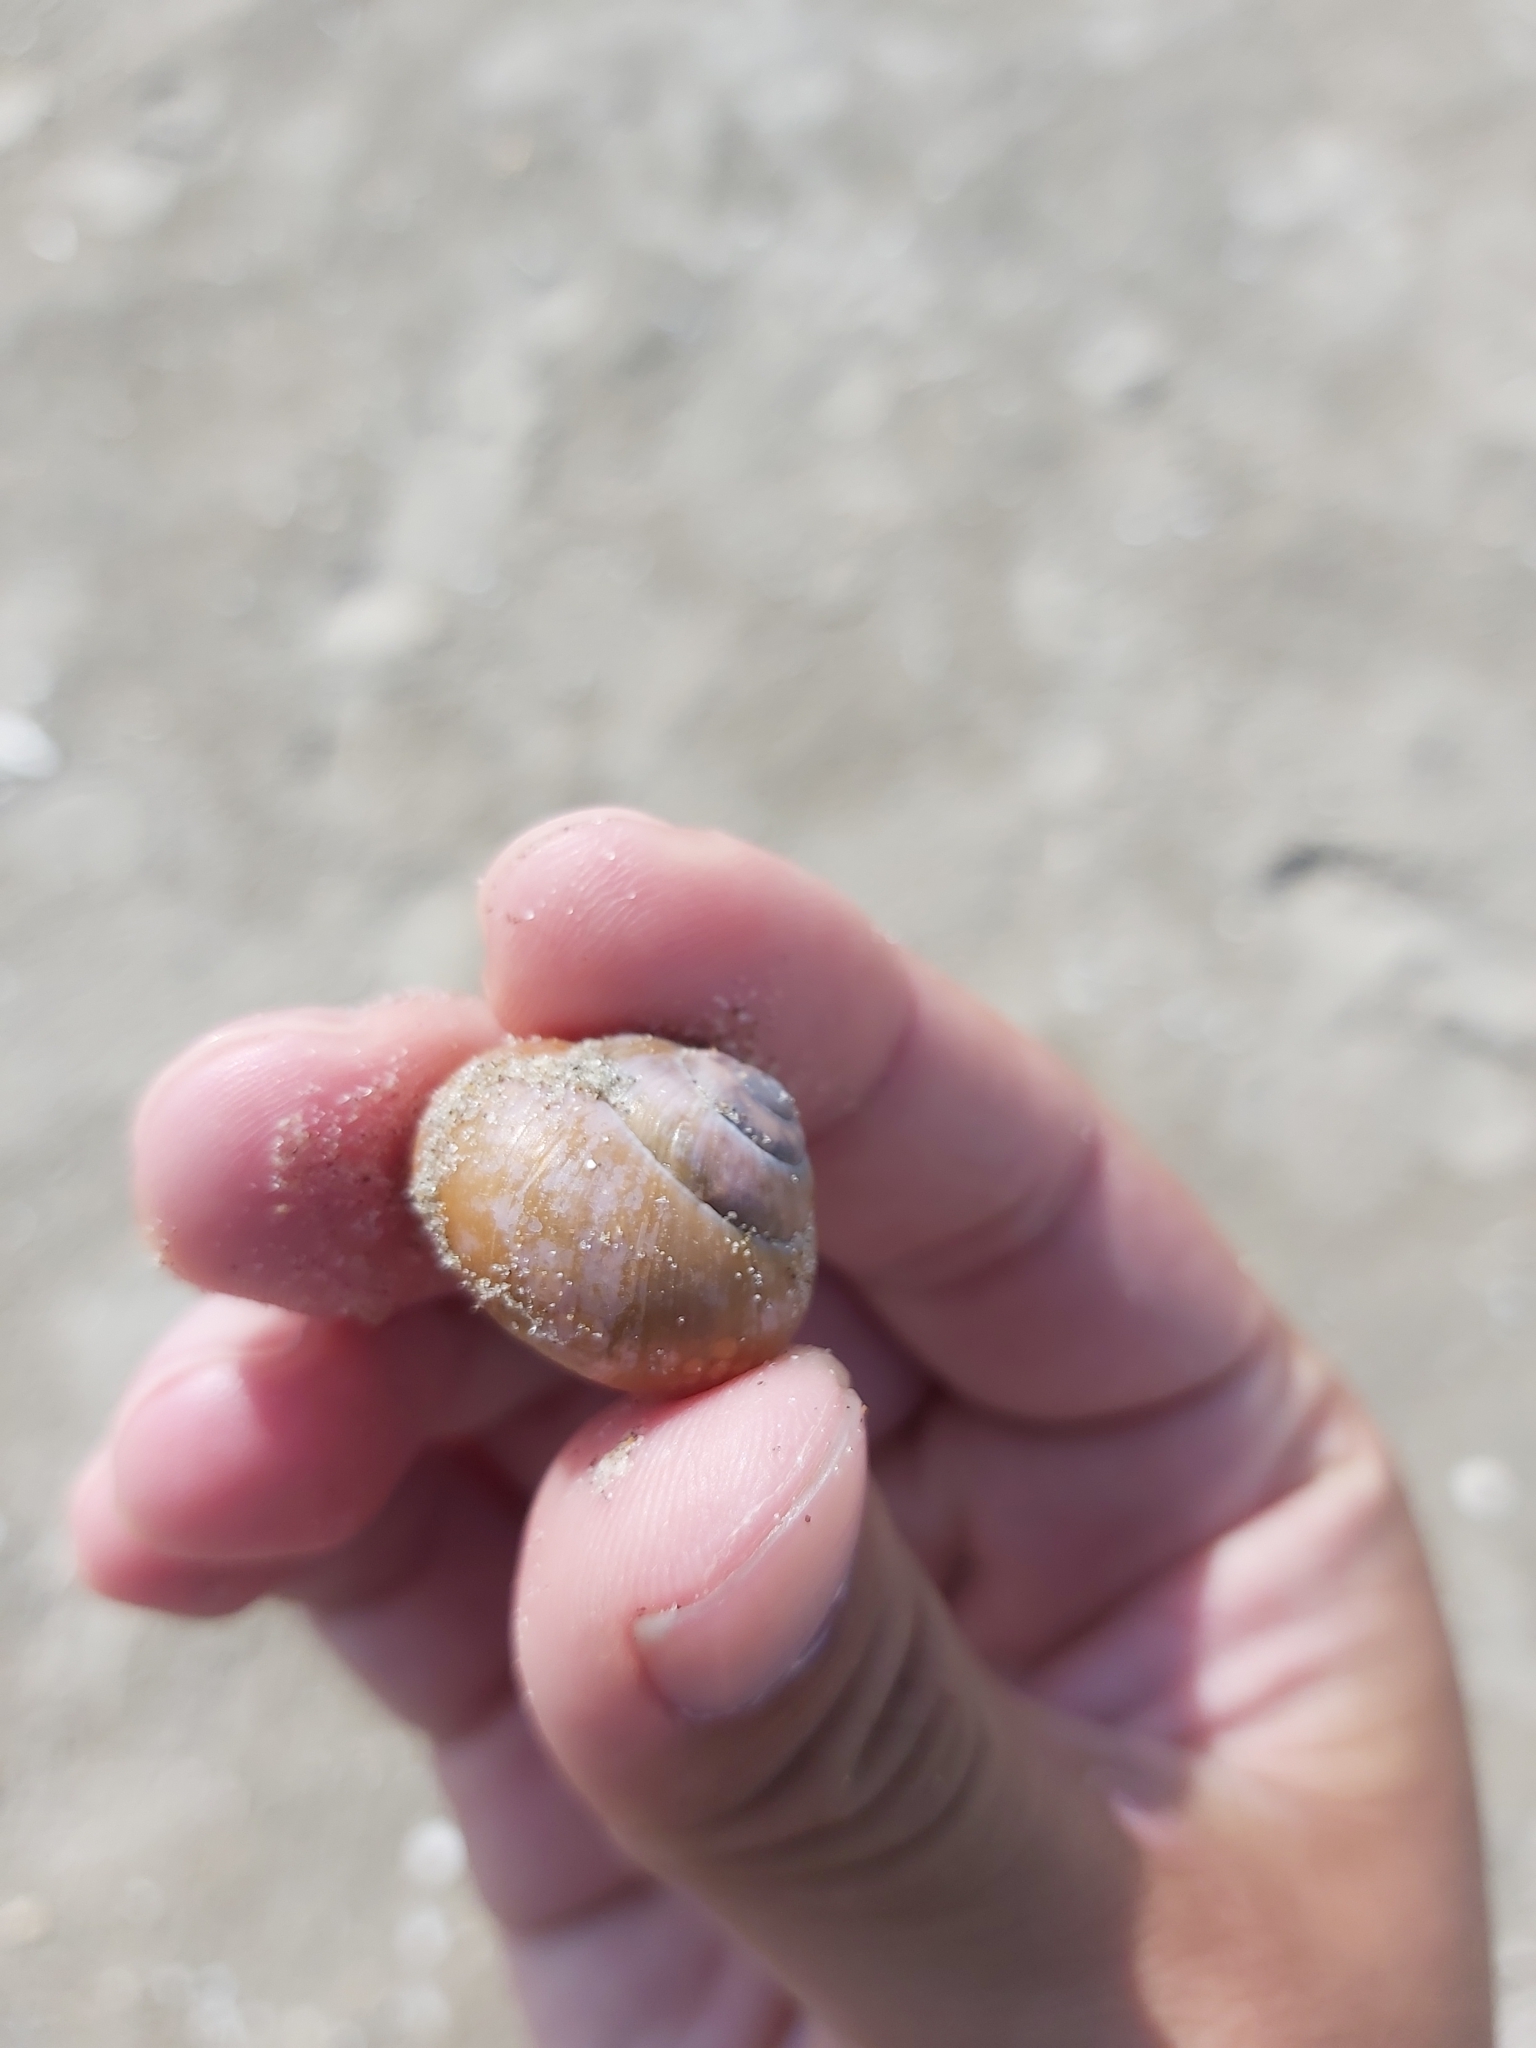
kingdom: Animalia
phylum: Mollusca
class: Gastropoda
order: Stylommatophora
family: Helicidae
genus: Cepaea
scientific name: Cepaea nemoralis
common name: Grovesnail
